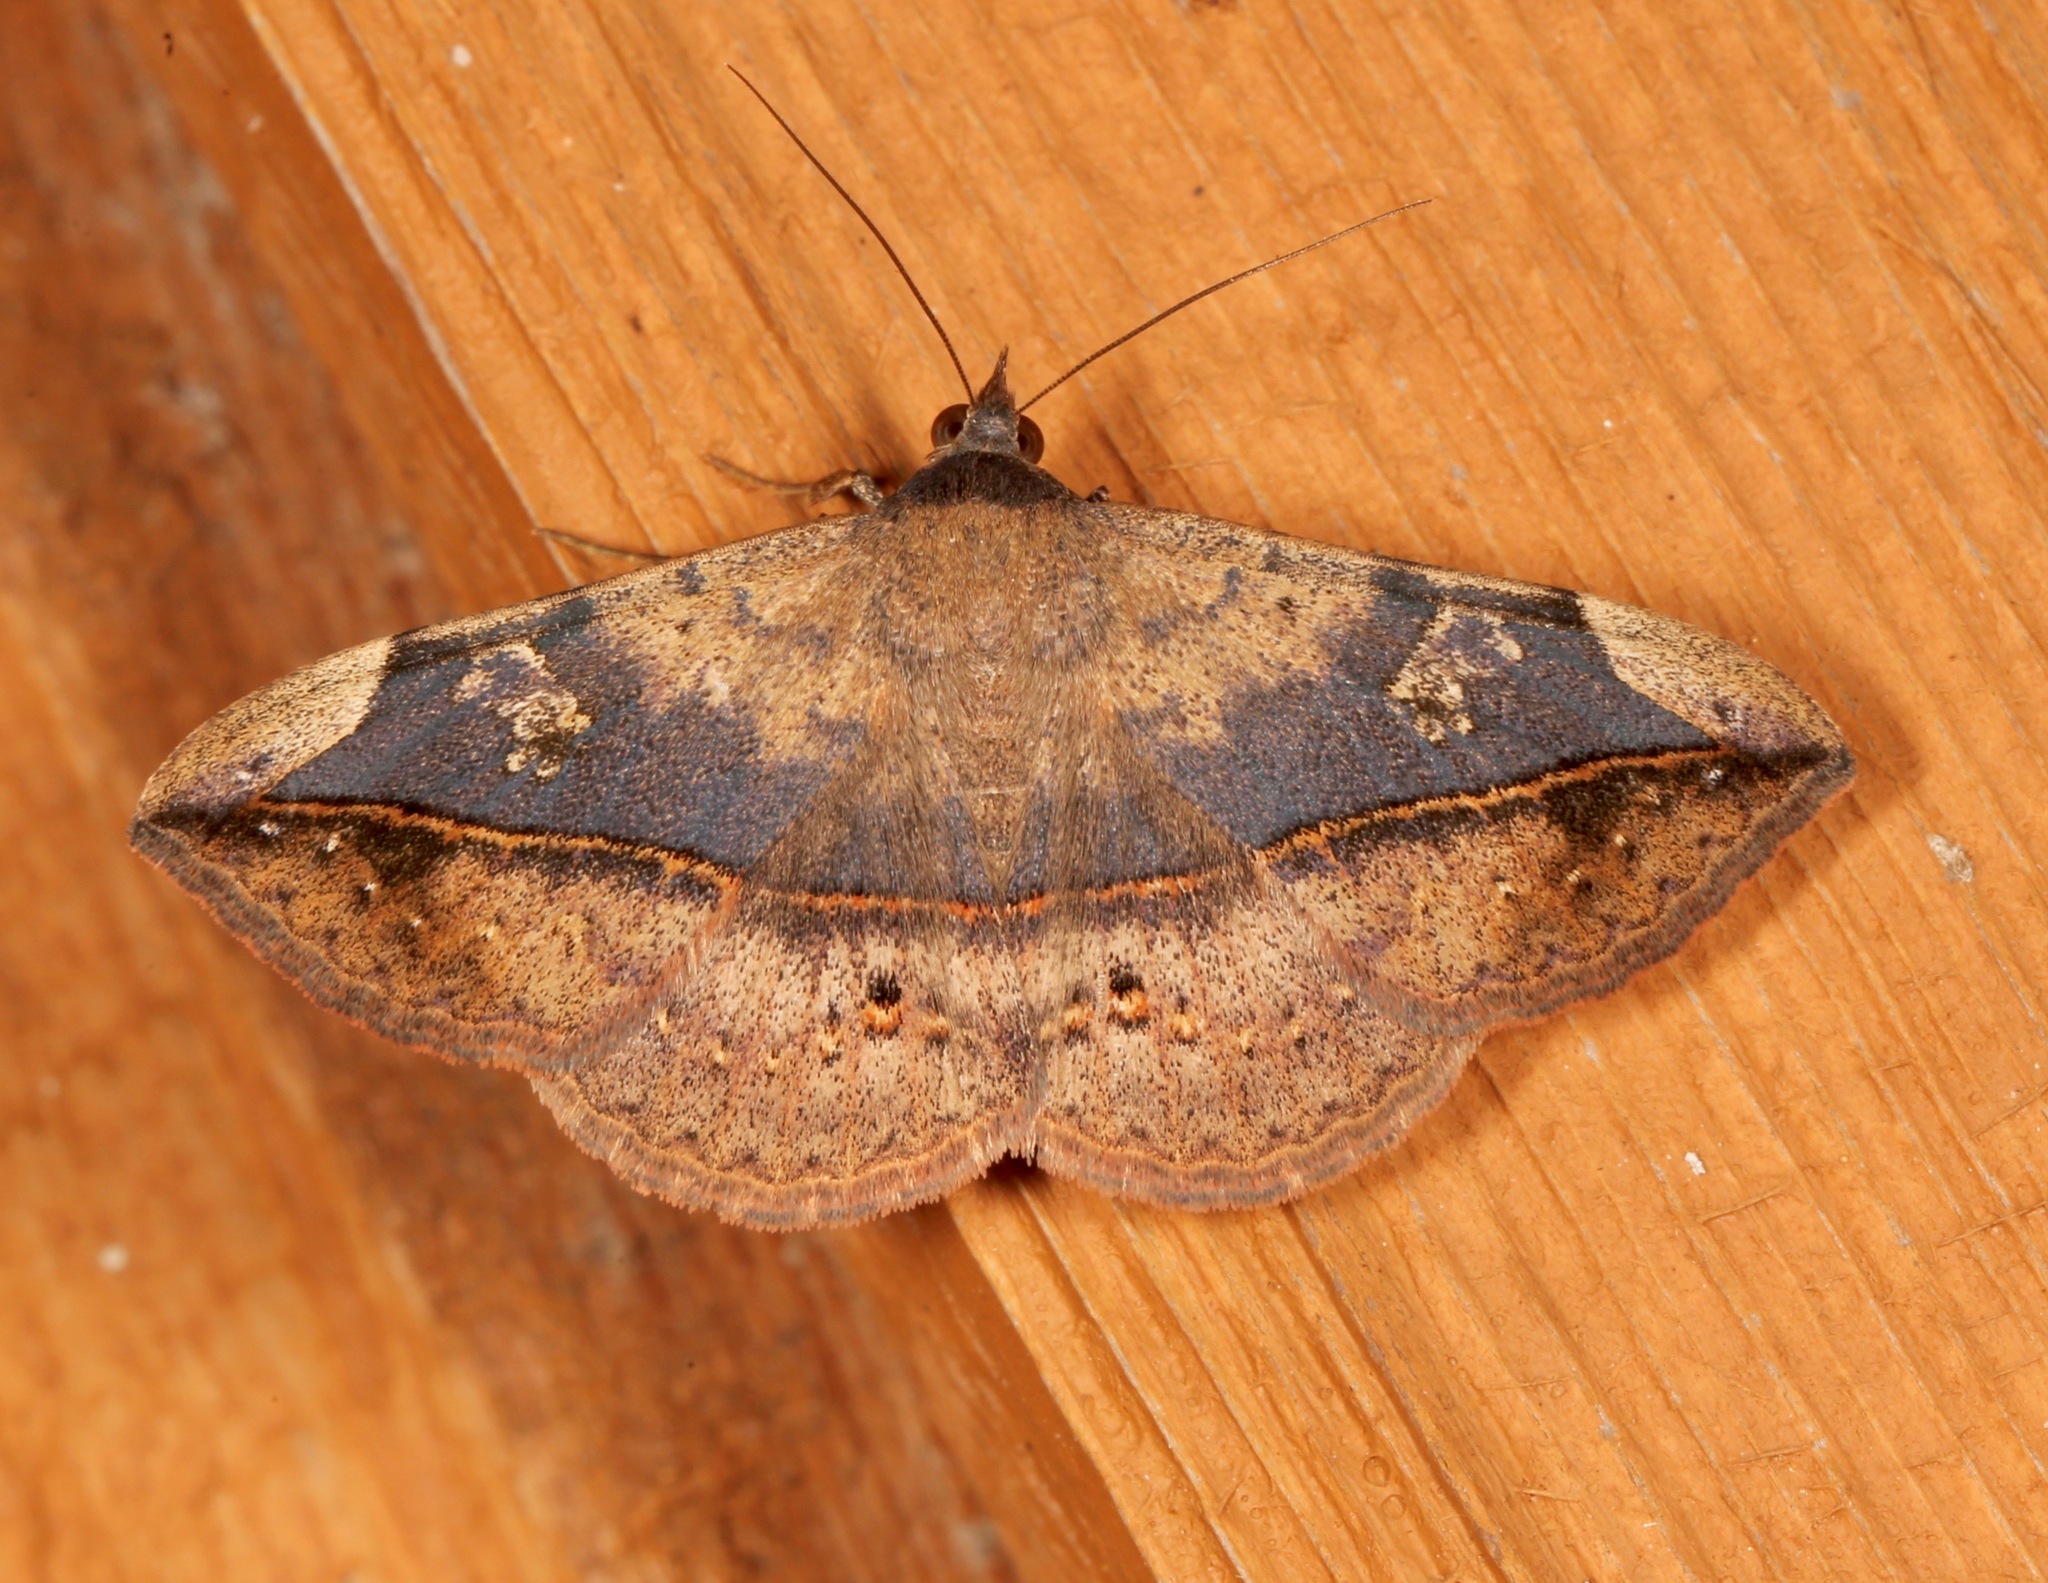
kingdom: Animalia
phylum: Arthropoda
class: Insecta
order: Lepidoptera
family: Erebidae
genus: Anticarsia
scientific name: Anticarsia gemmatalis
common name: Cutworm moth
